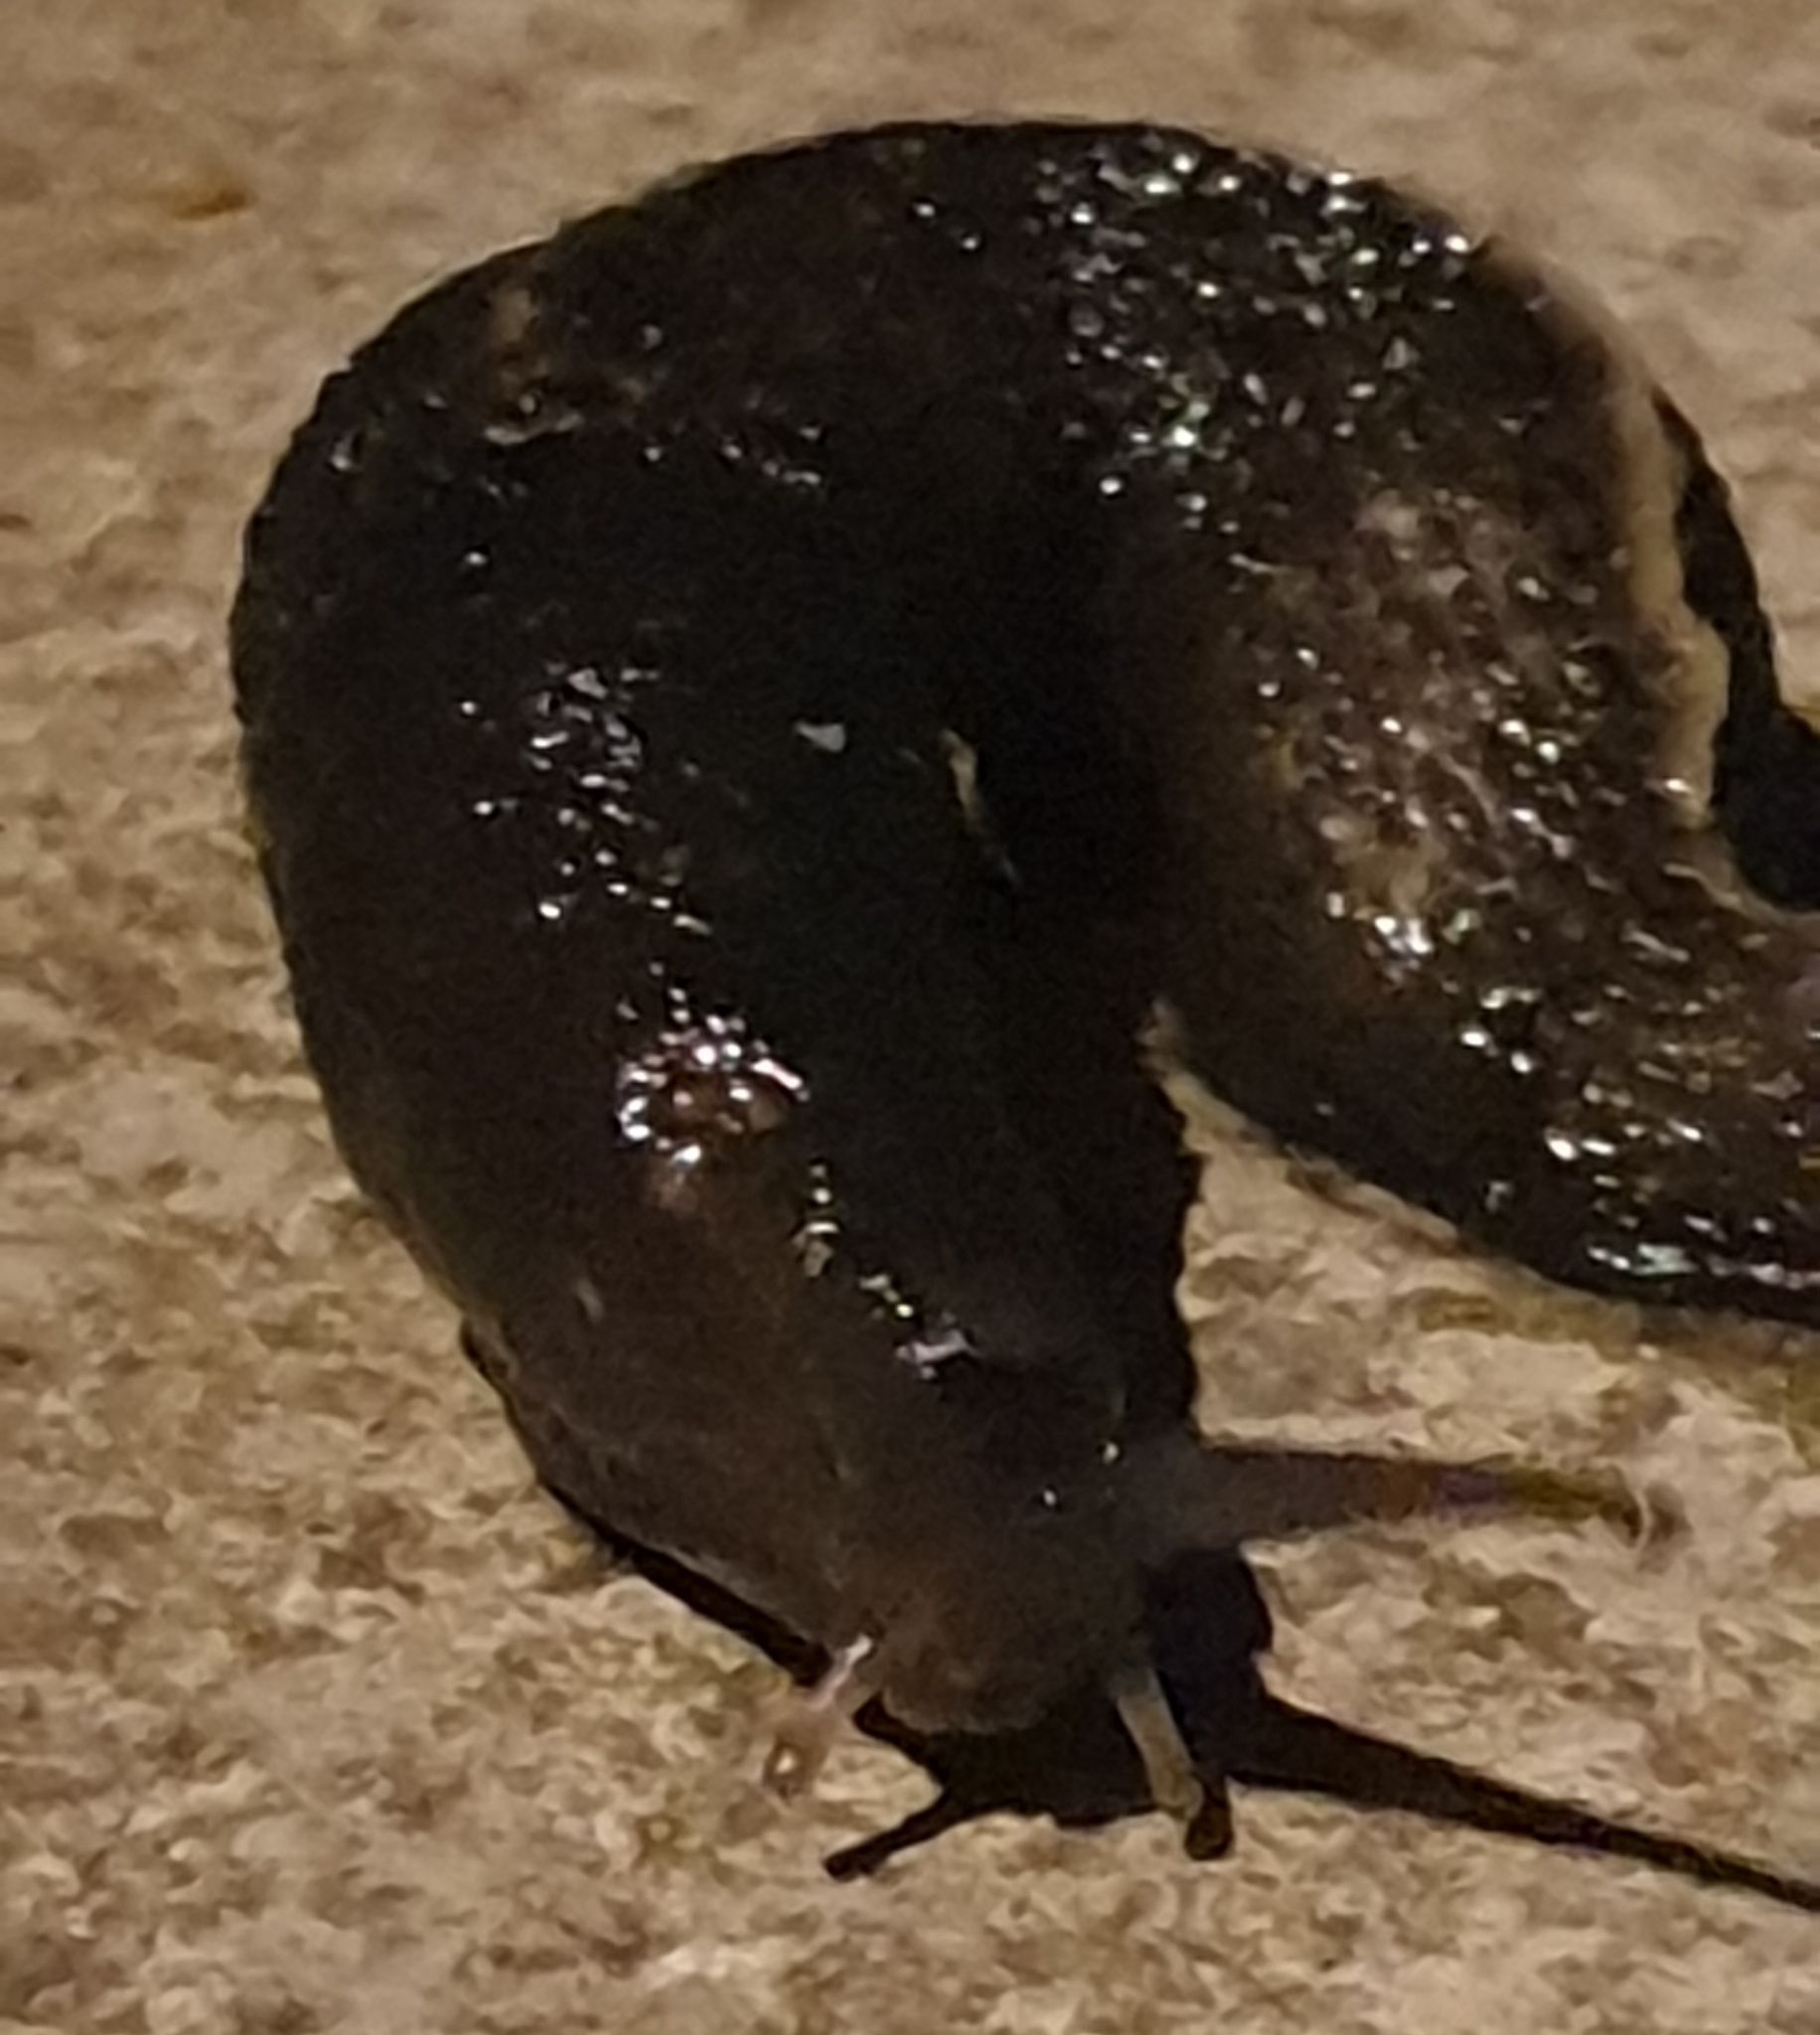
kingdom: Animalia
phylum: Mollusca
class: Gastropoda
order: Stylommatophora
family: Limacidae
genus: Limax
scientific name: Limax cinereoniger
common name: Ash-black slug
